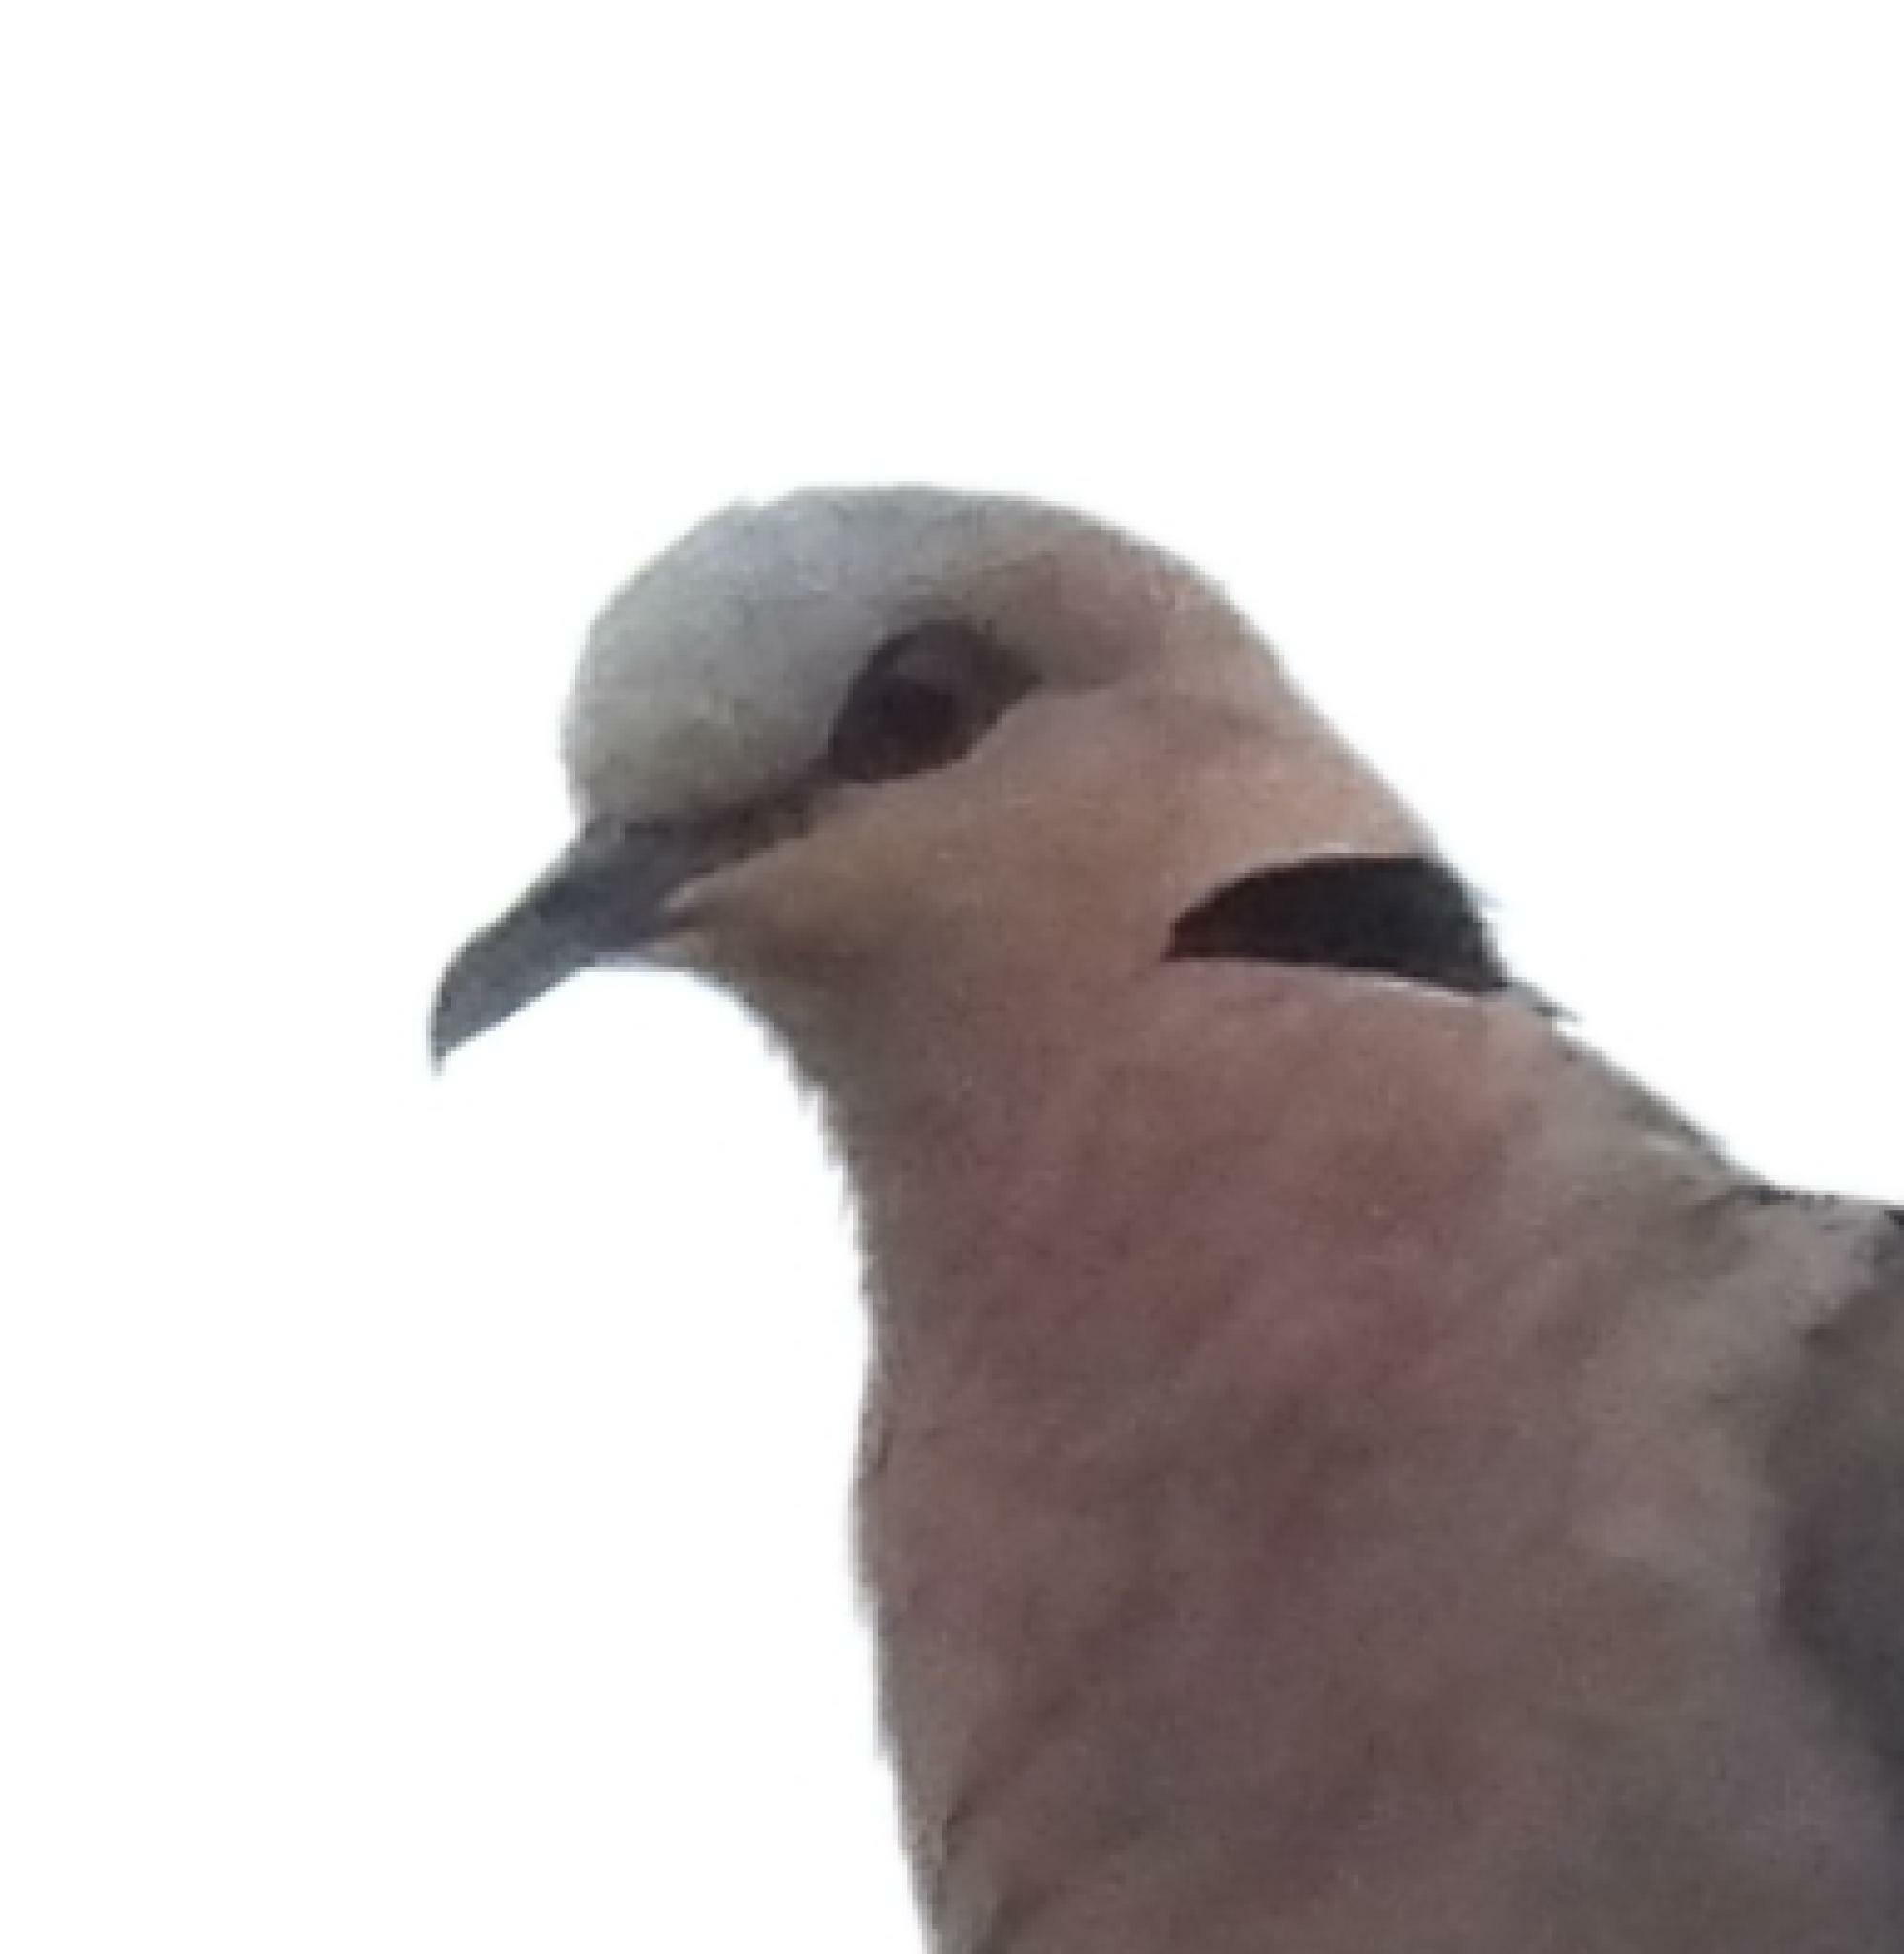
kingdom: Animalia
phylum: Chordata
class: Aves
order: Columbiformes
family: Columbidae
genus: Streptopelia
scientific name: Streptopelia semitorquata
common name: Red-eyed dove
